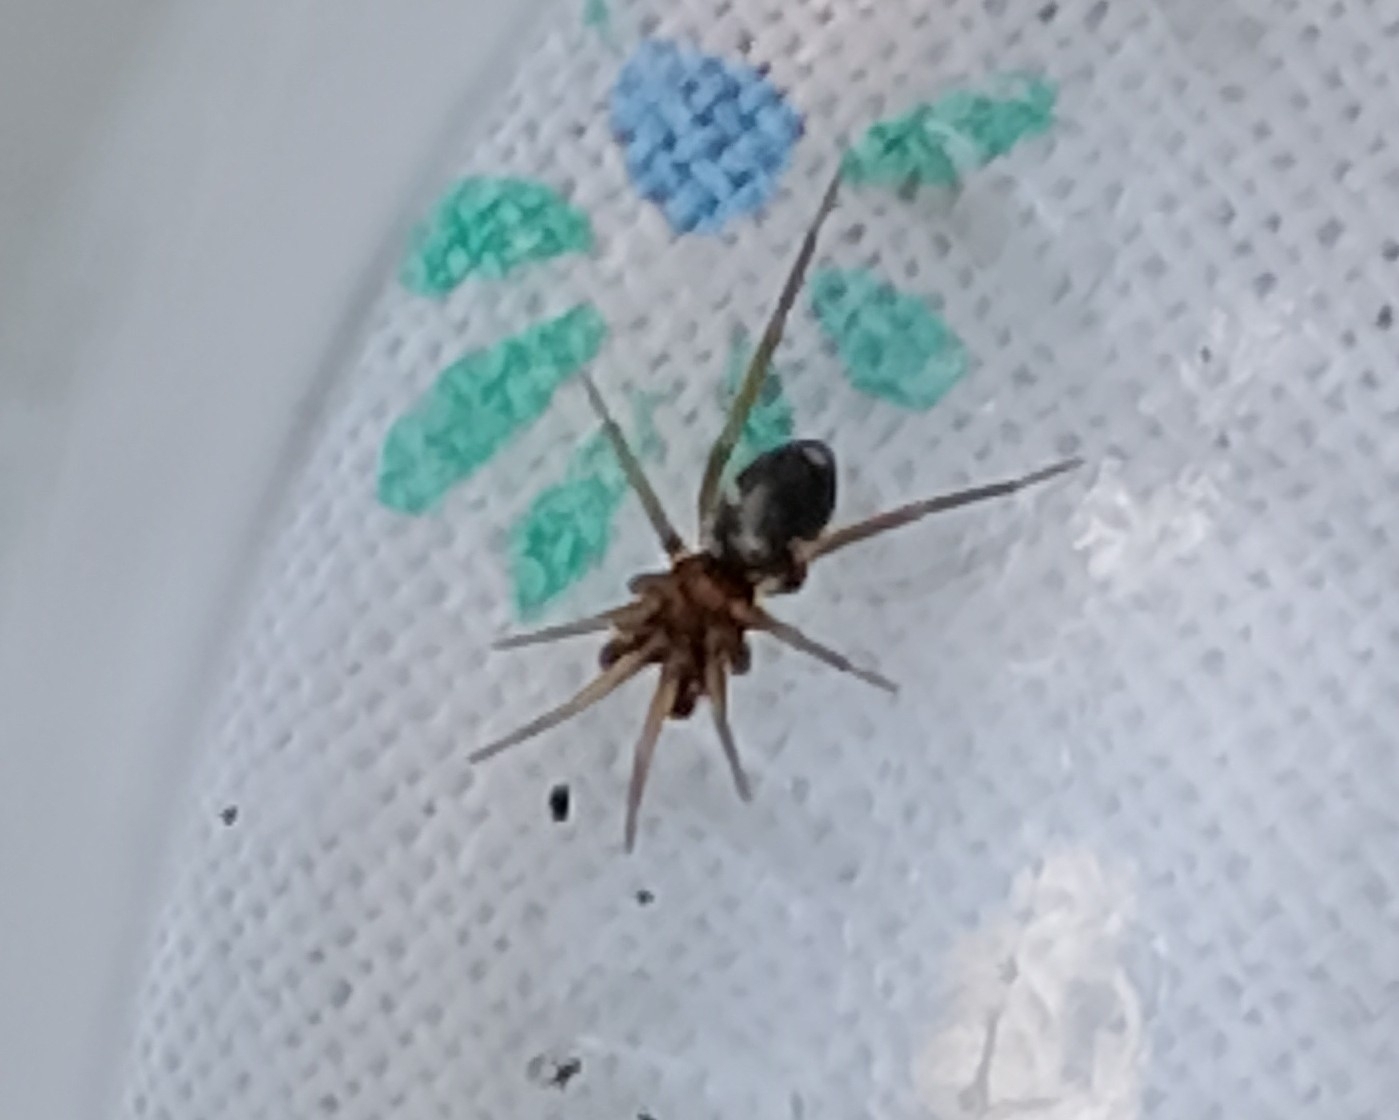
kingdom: Animalia
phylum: Arthropoda
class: Arachnida
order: Araneae
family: Phrurolithidae
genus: Phrurolithus
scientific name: Phrurolithus festivus
